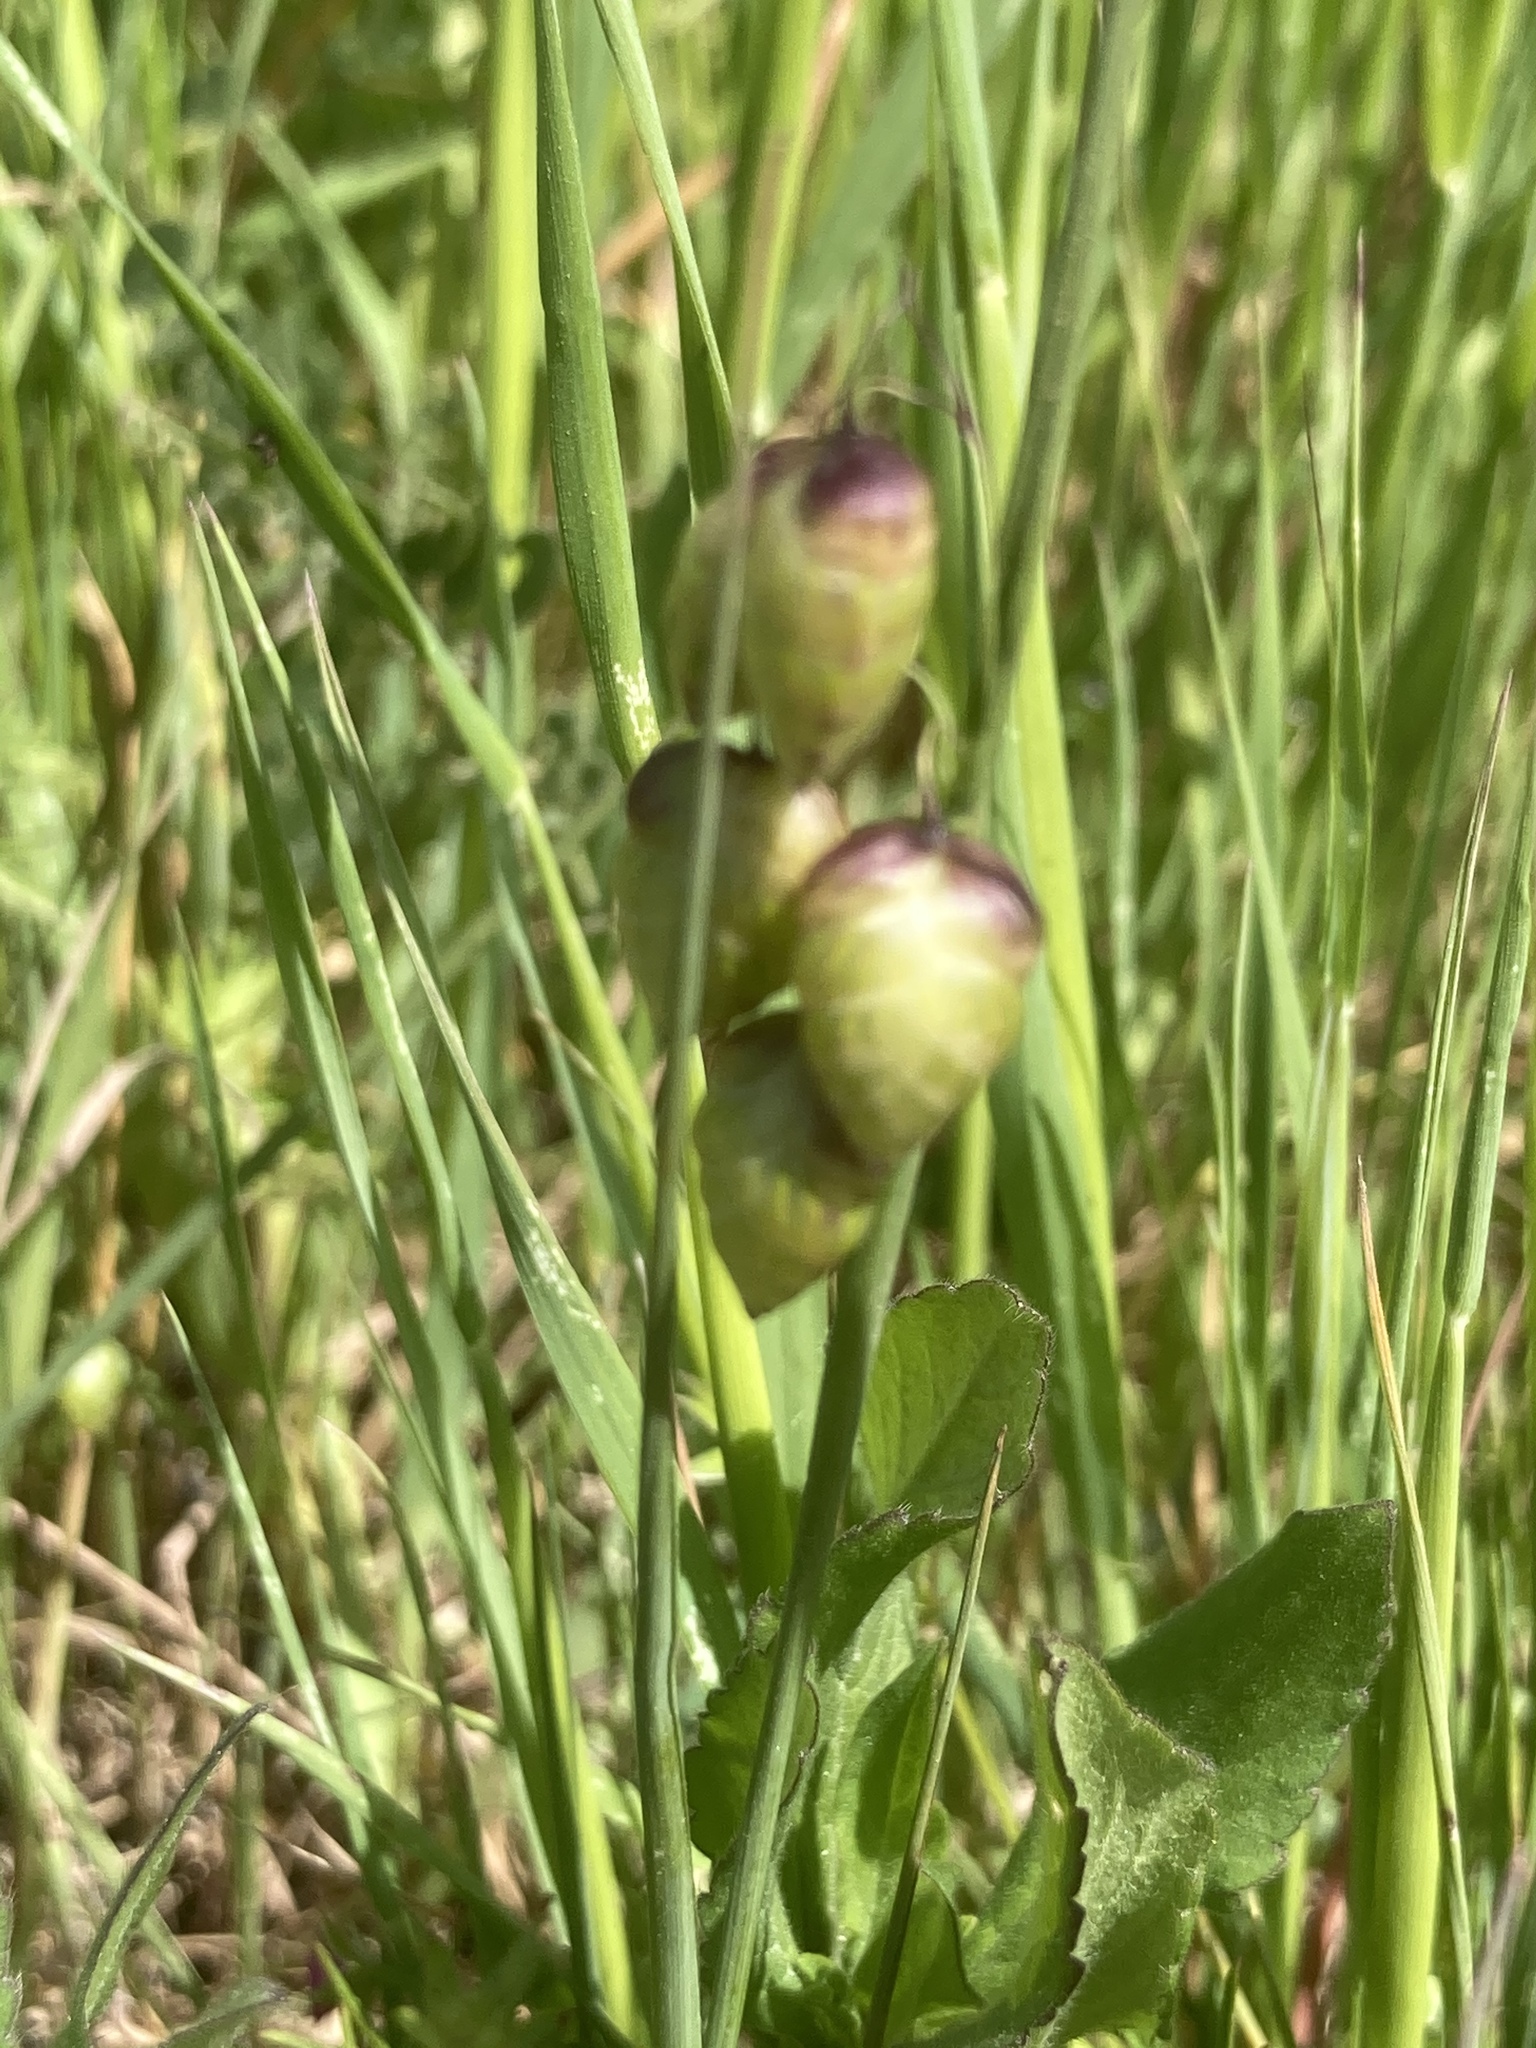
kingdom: Plantae
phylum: Tracheophyta
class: Liliopsida
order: Poales
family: Poaceae
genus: Briza
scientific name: Briza maxima
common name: Big quakinggrass
